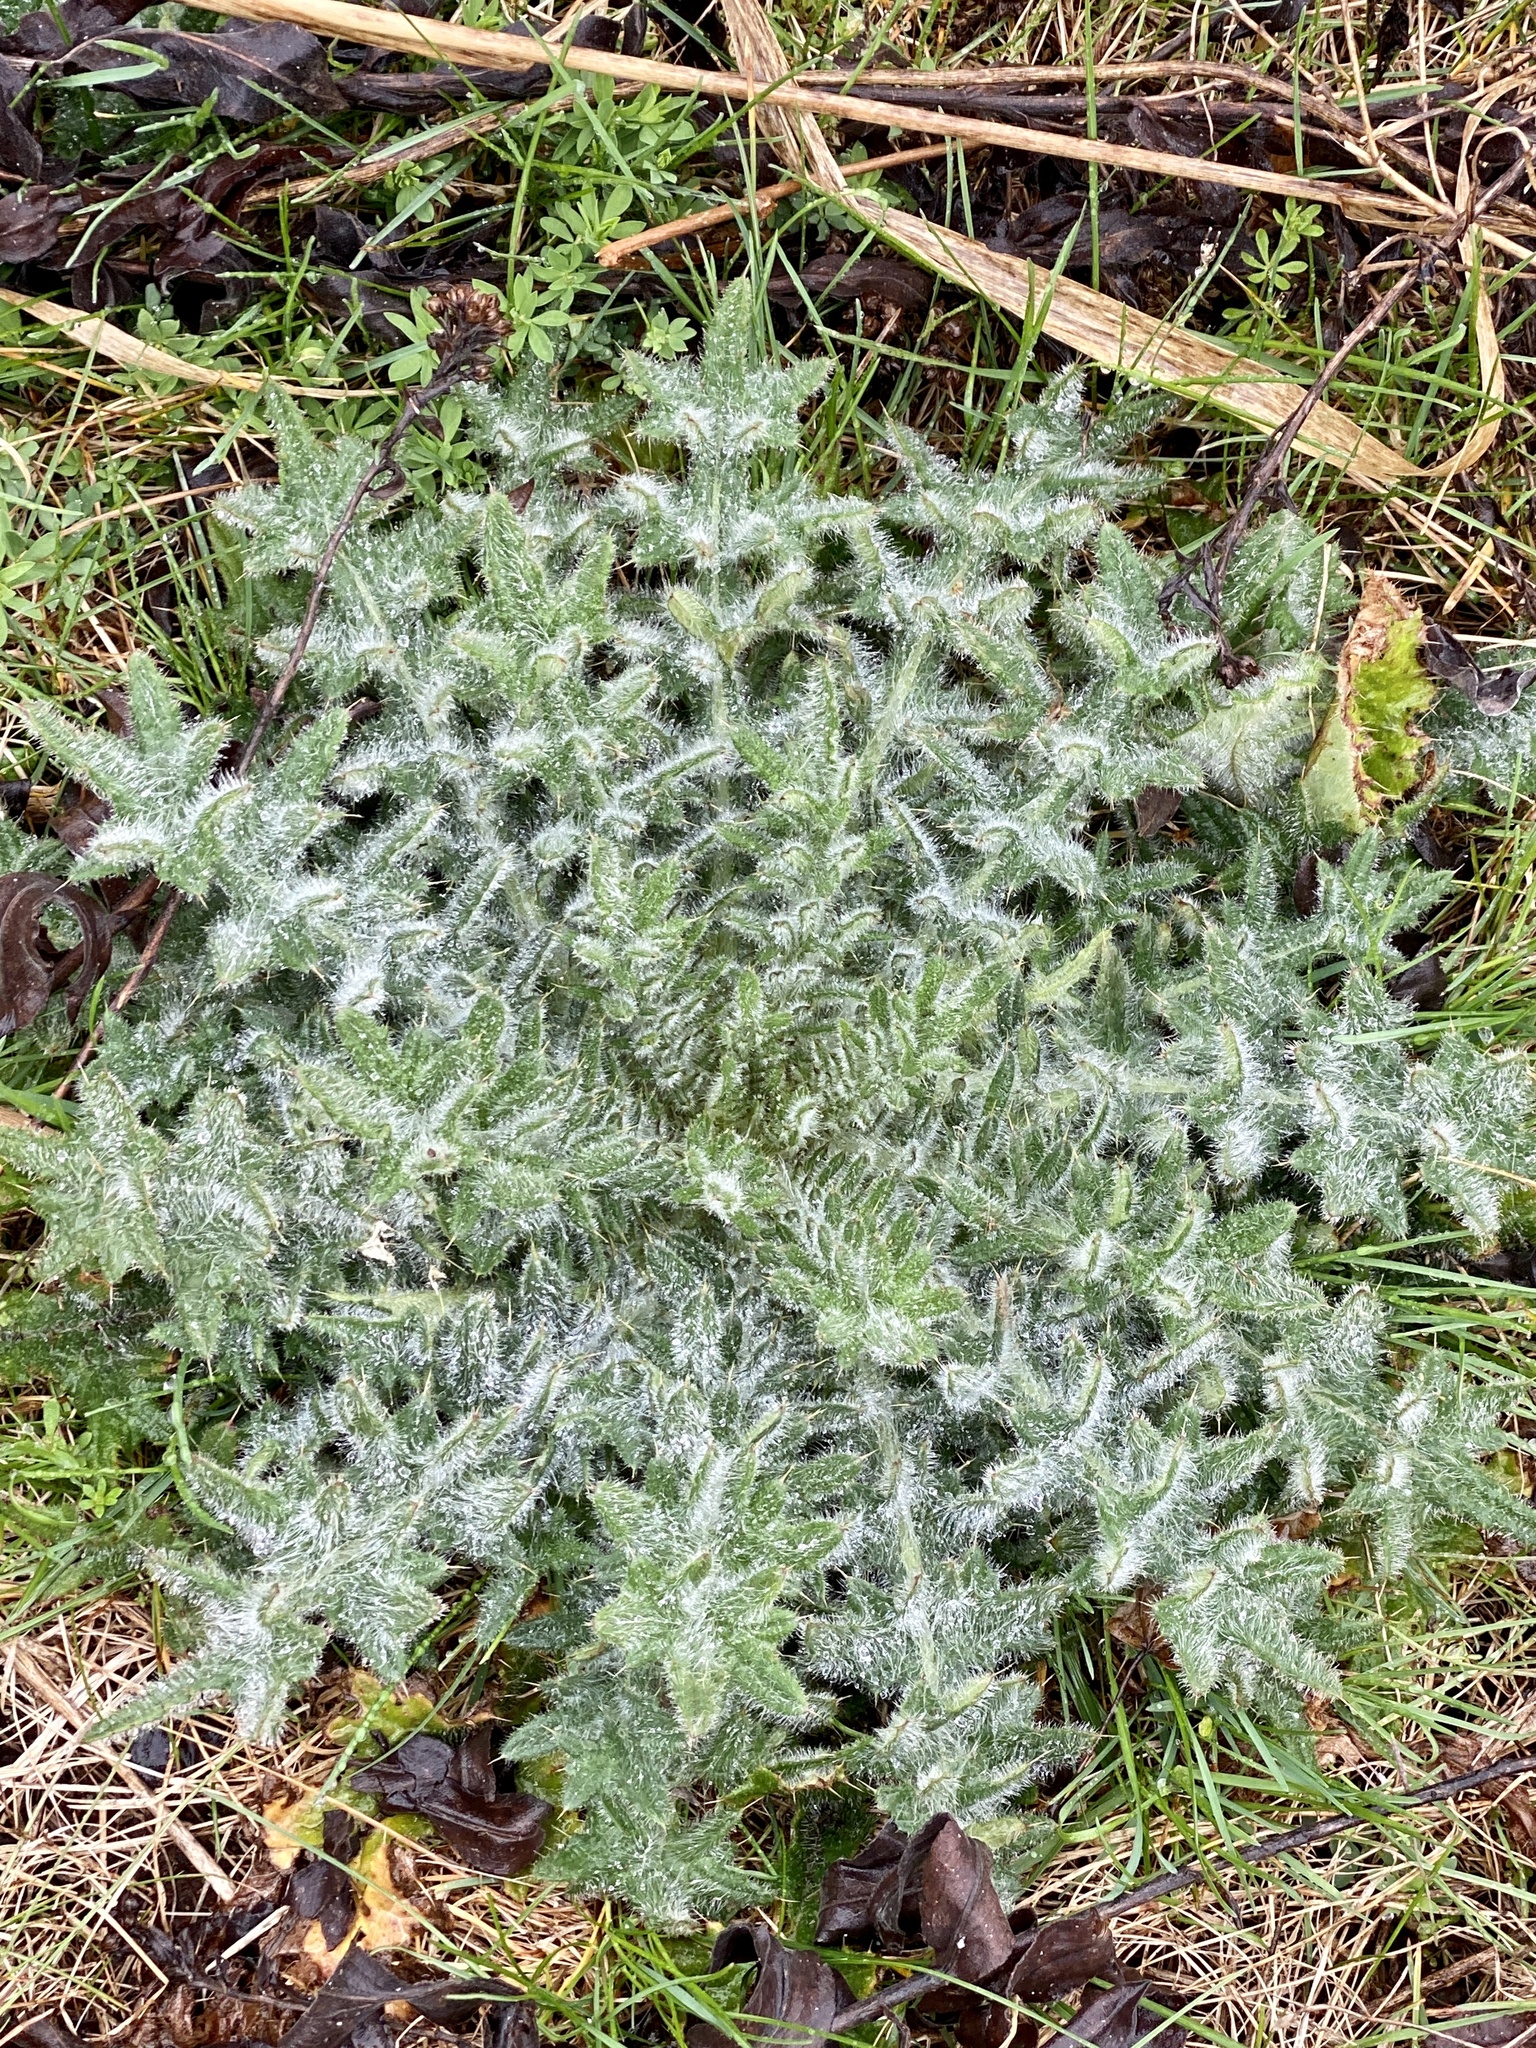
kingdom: Plantae
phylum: Tracheophyta
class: Magnoliopsida
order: Asterales
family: Asteraceae
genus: Cirsium
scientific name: Cirsium vulgare
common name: Bull thistle
